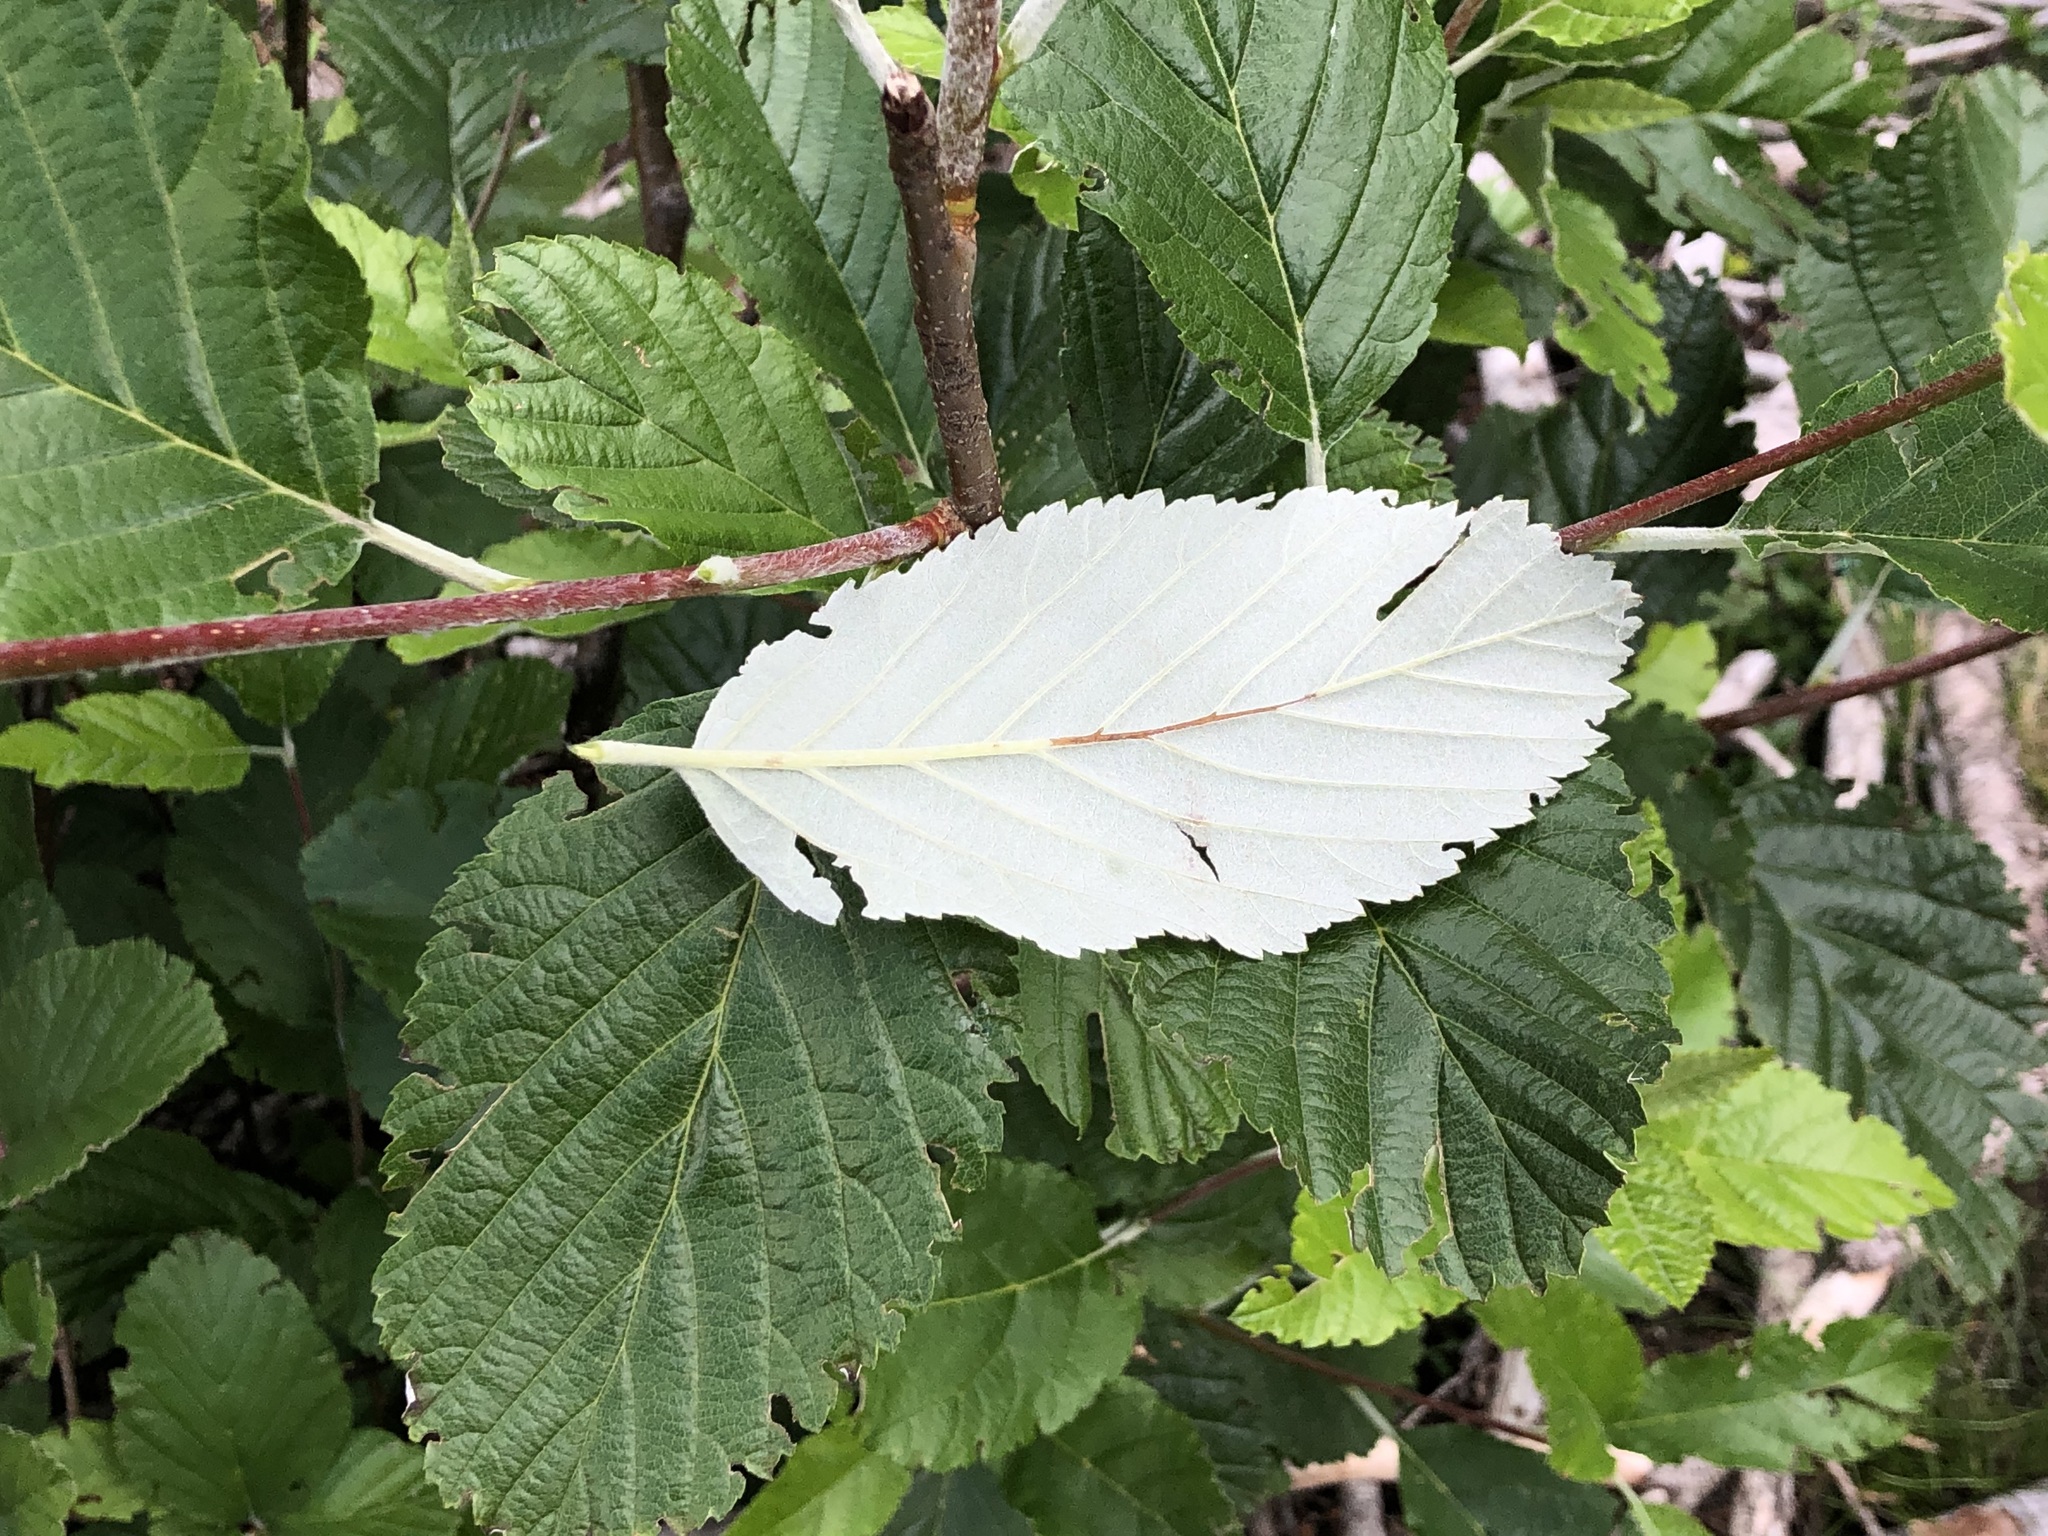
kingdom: Plantae
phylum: Tracheophyta
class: Magnoliopsida
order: Rosales
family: Rosaceae
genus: Aria
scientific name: Aria edulis
